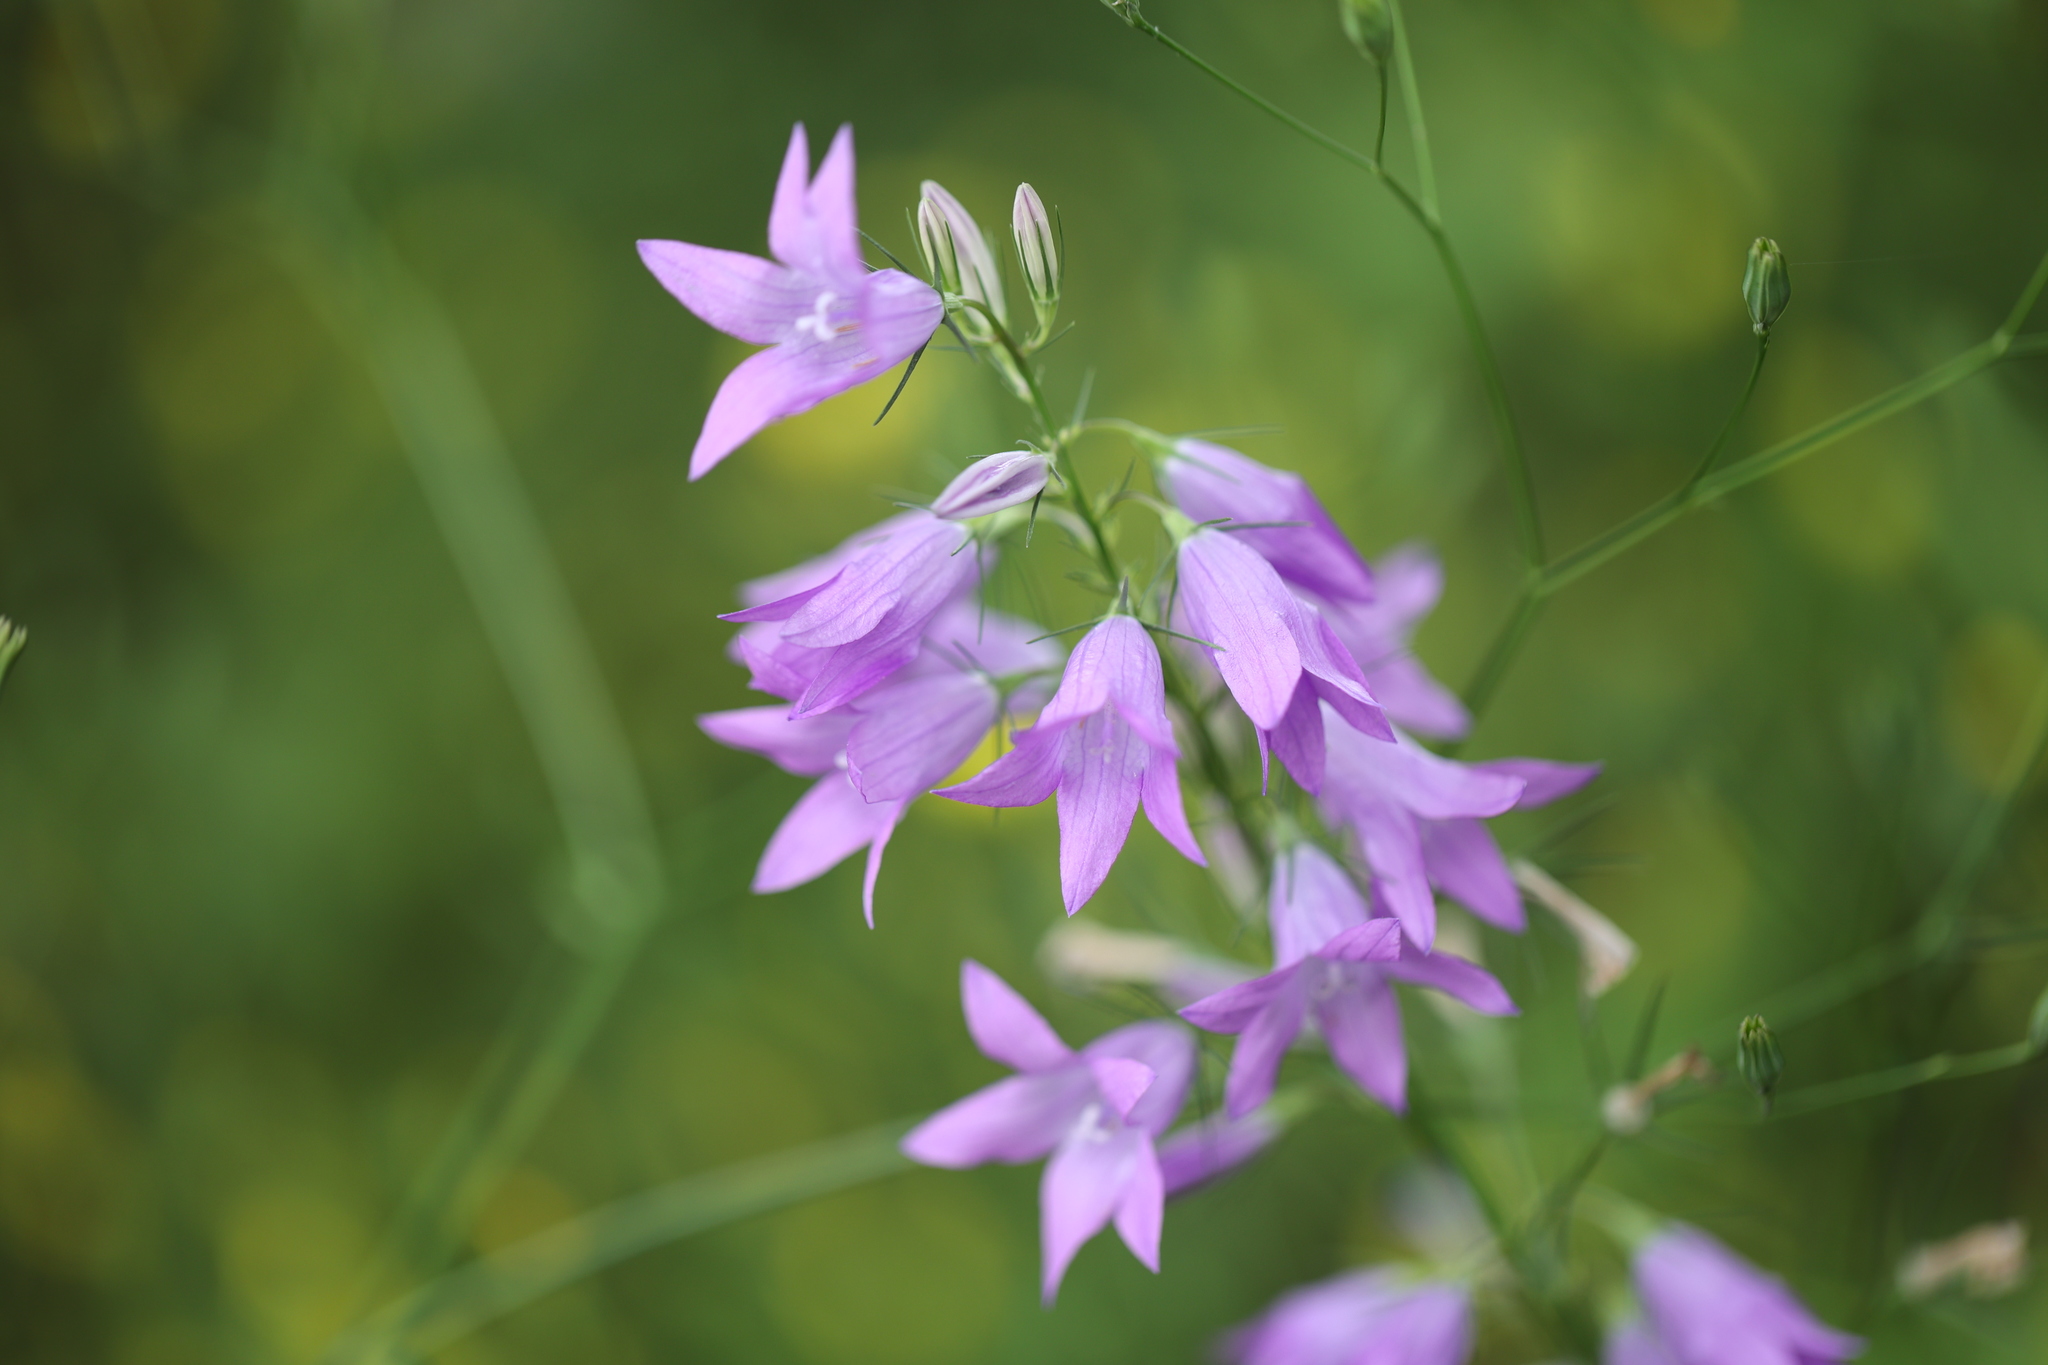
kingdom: Plantae
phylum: Tracheophyta
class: Magnoliopsida
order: Asterales
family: Campanulaceae
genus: Campanula
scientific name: Campanula rapunculus
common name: Rampion bellflower
